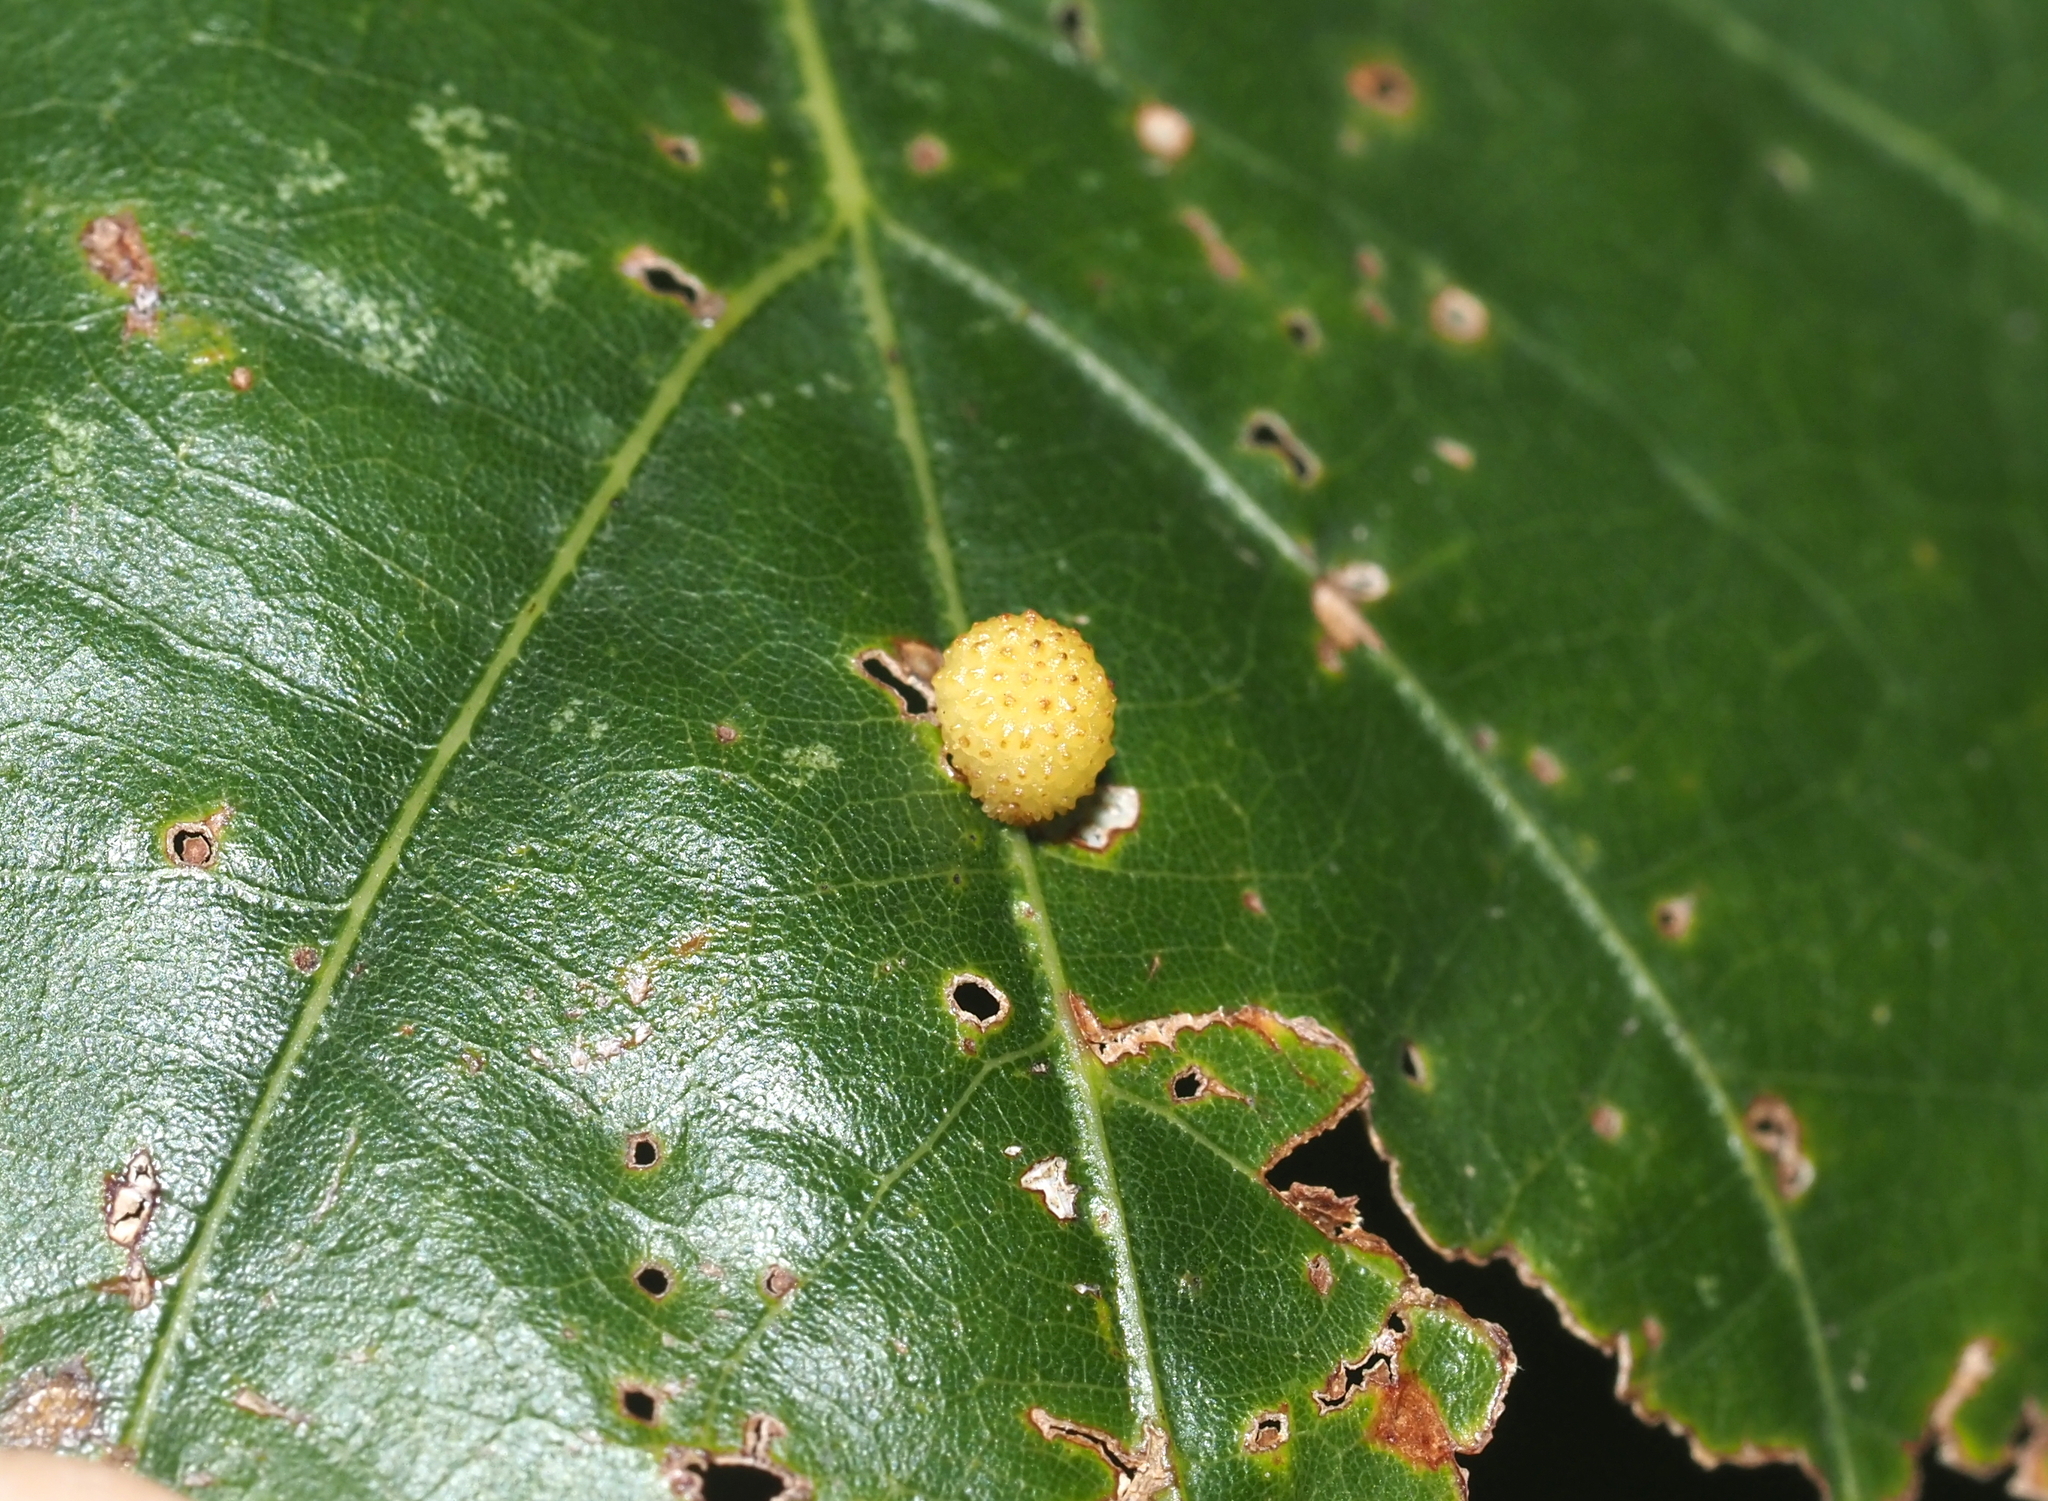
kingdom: Animalia
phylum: Arthropoda
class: Insecta
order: Hymenoptera
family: Cynipidae
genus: Acraspis
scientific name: Acraspis
